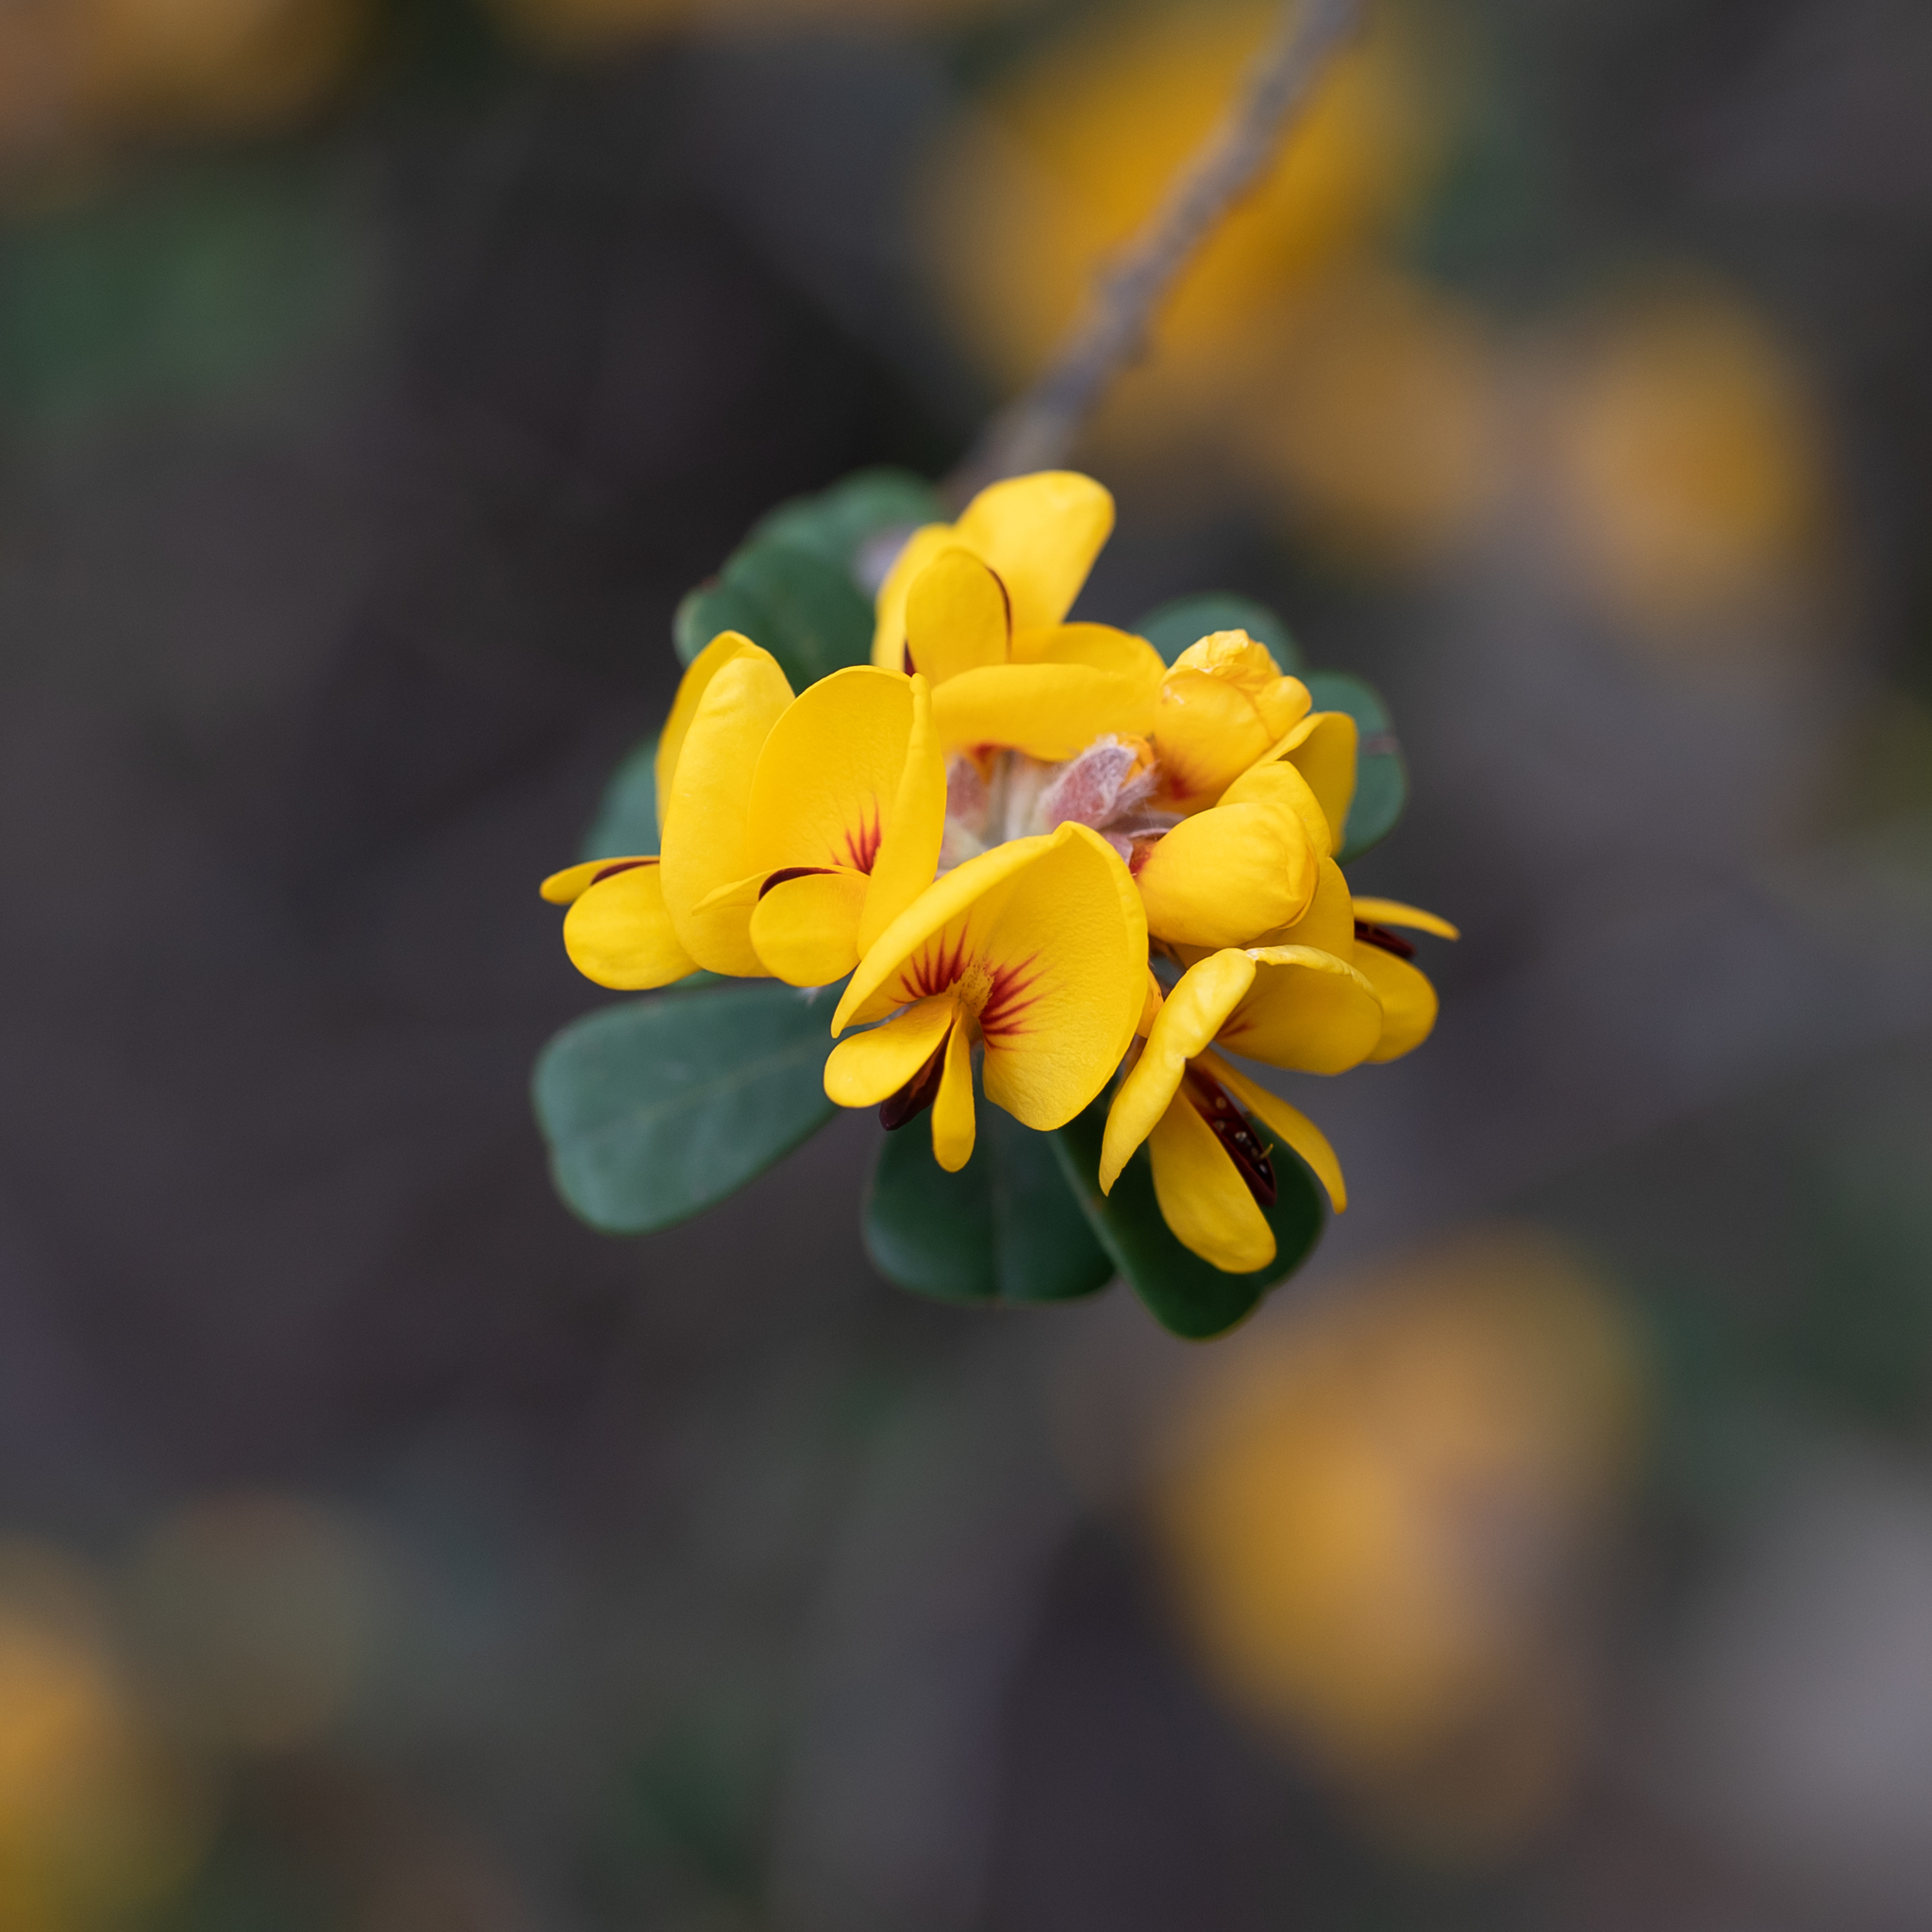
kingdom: Plantae
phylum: Tracheophyta
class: Magnoliopsida
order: Fabales
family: Fabaceae
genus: Pultenaea
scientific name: Pultenaea daphnoides
